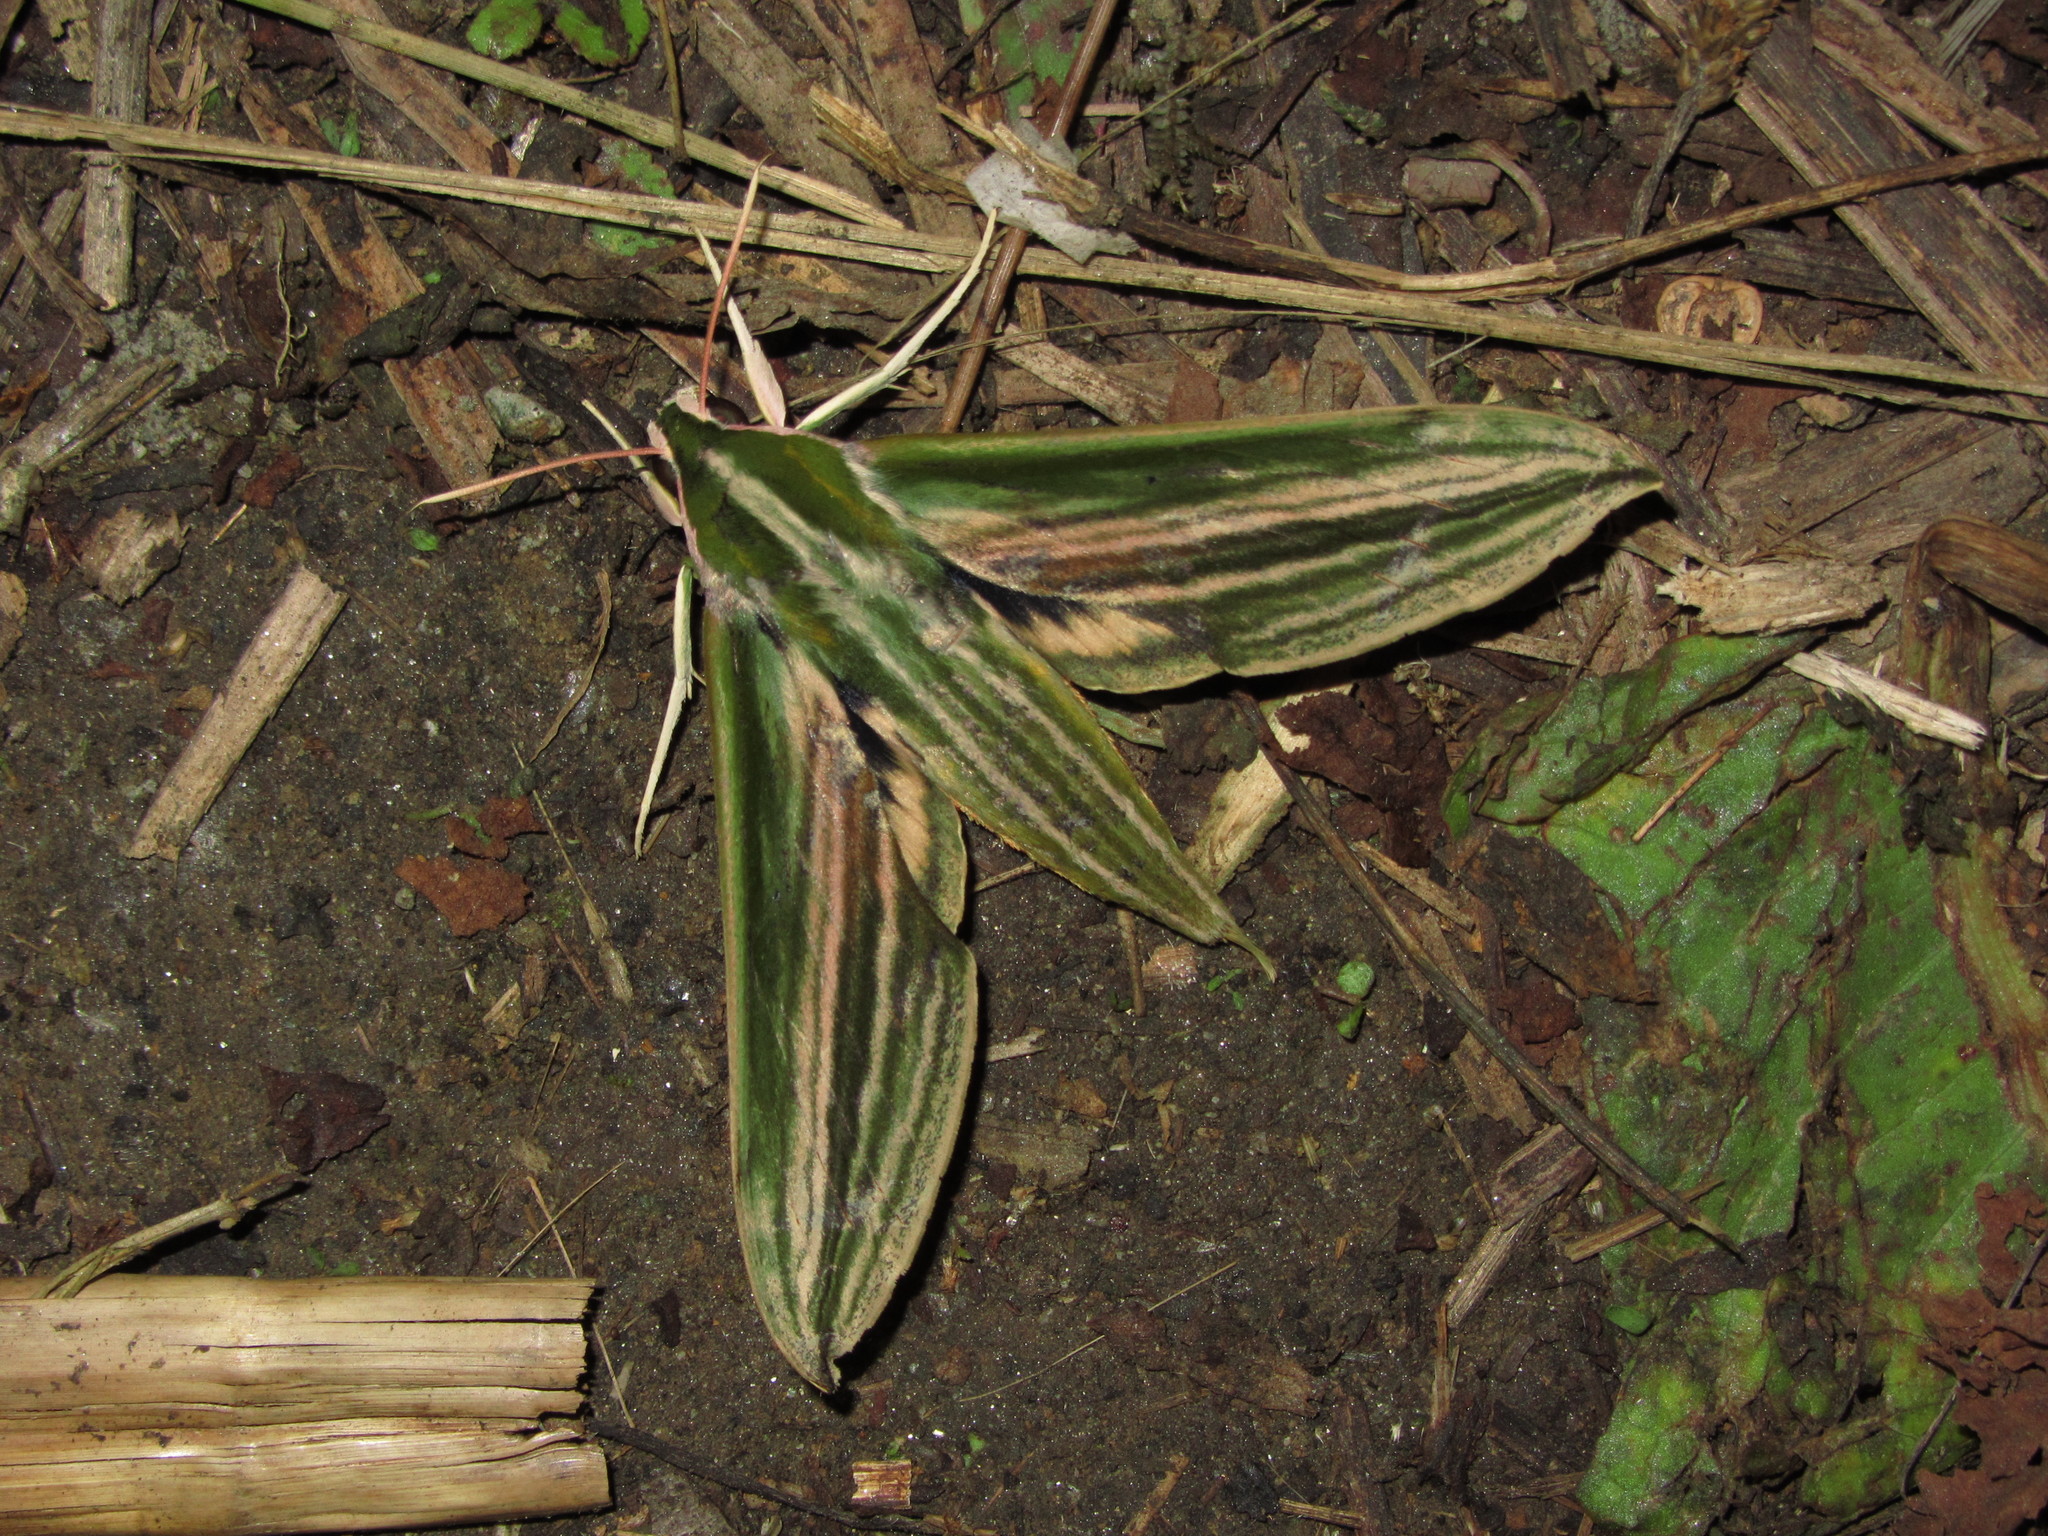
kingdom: Animalia
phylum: Arthropoda
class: Insecta
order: Lepidoptera
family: Sphingidae
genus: Cechetra
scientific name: Cechetra scotti
